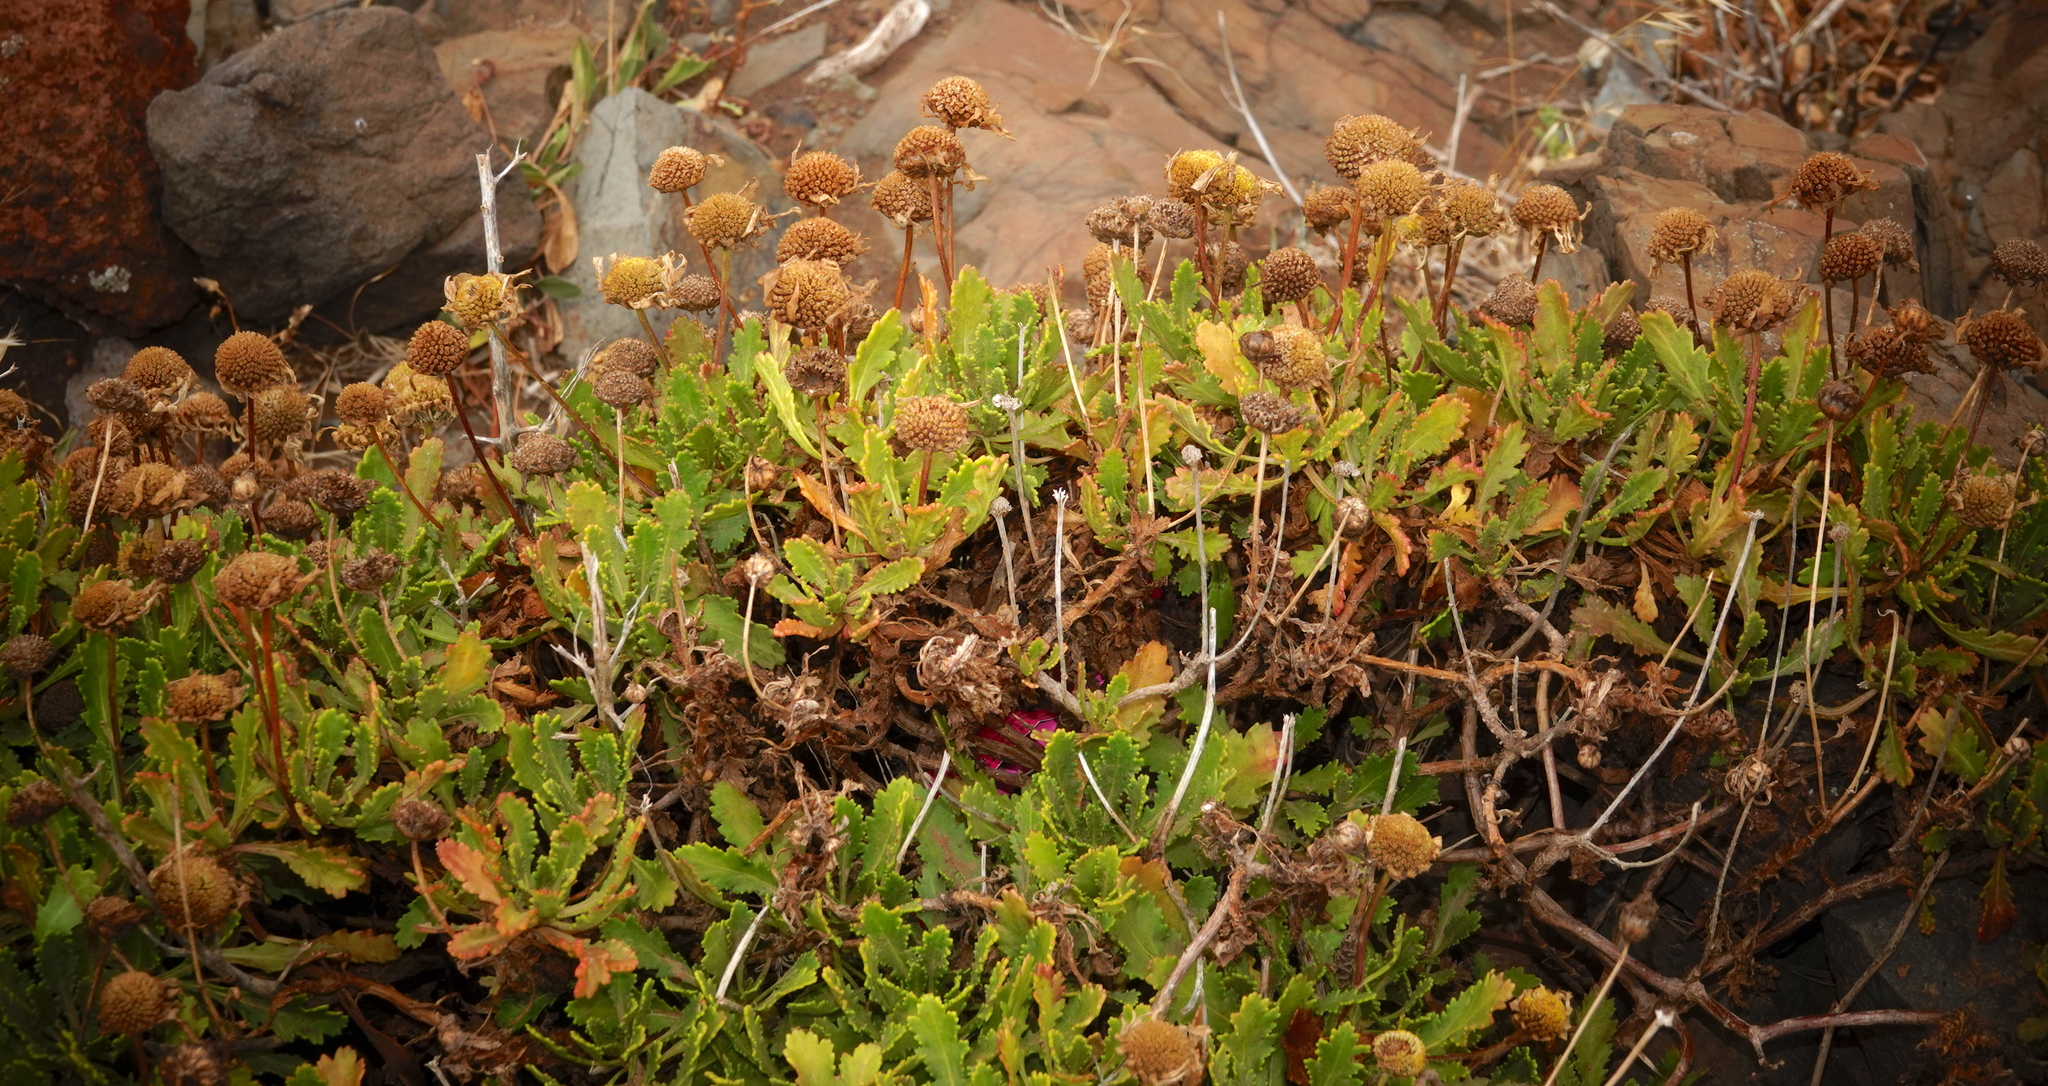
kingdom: Plantae
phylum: Tracheophyta
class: Magnoliopsida
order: Asterales
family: Asteraceae
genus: Argyranthemum
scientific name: Argyranthemum pinnatifidum
